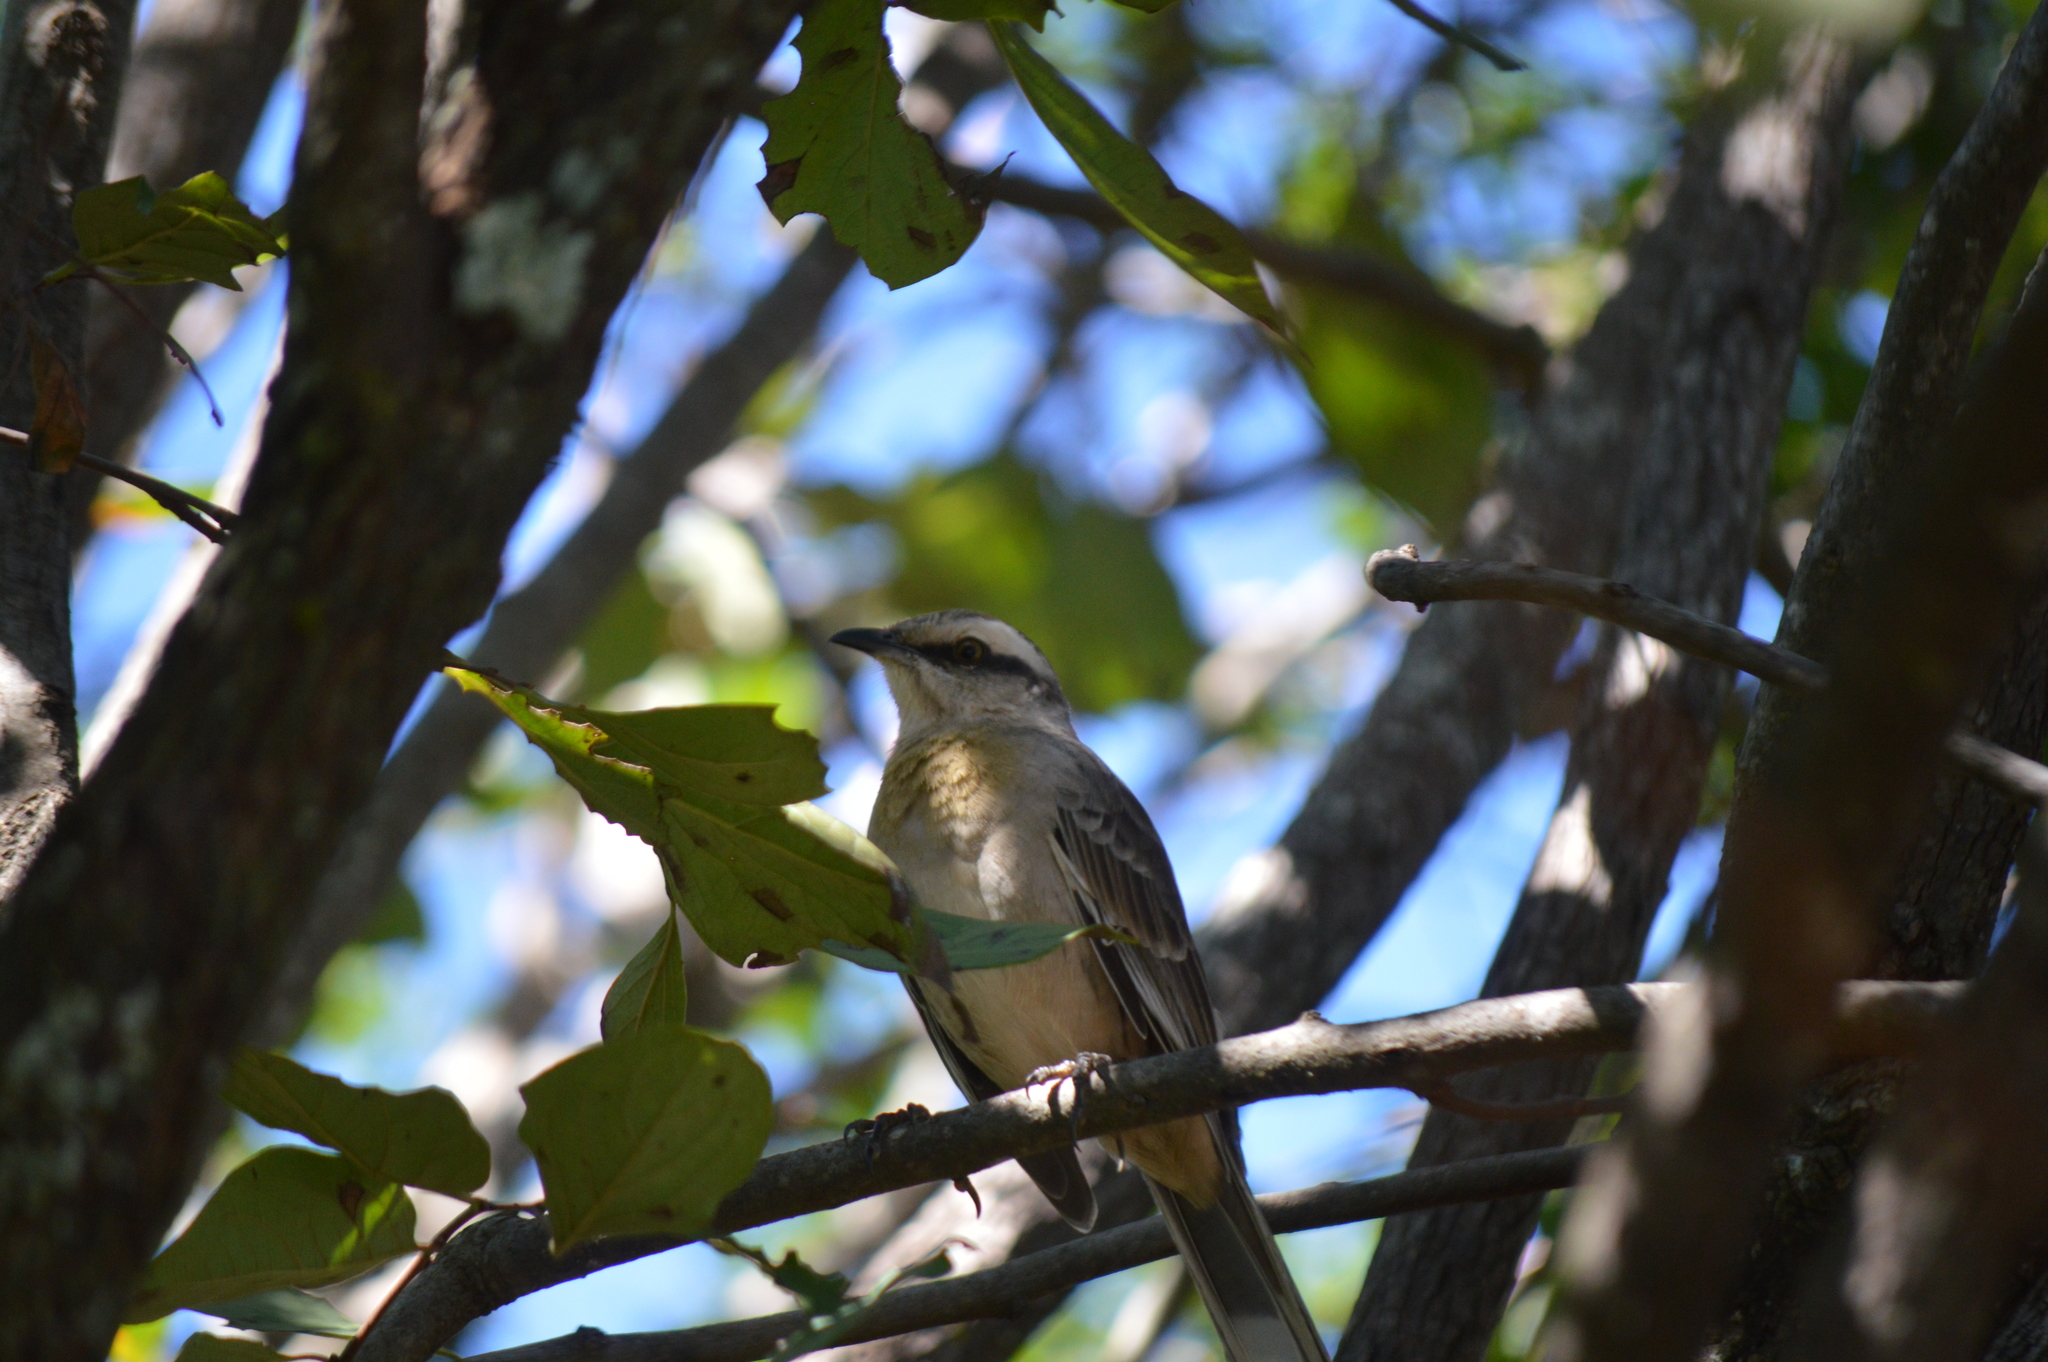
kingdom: Animalia
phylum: Chordata
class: Aves
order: Passeriformes
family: Mimidae
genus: Mimus
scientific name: Mimus saturninus
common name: Chalk-browed mockingbird
